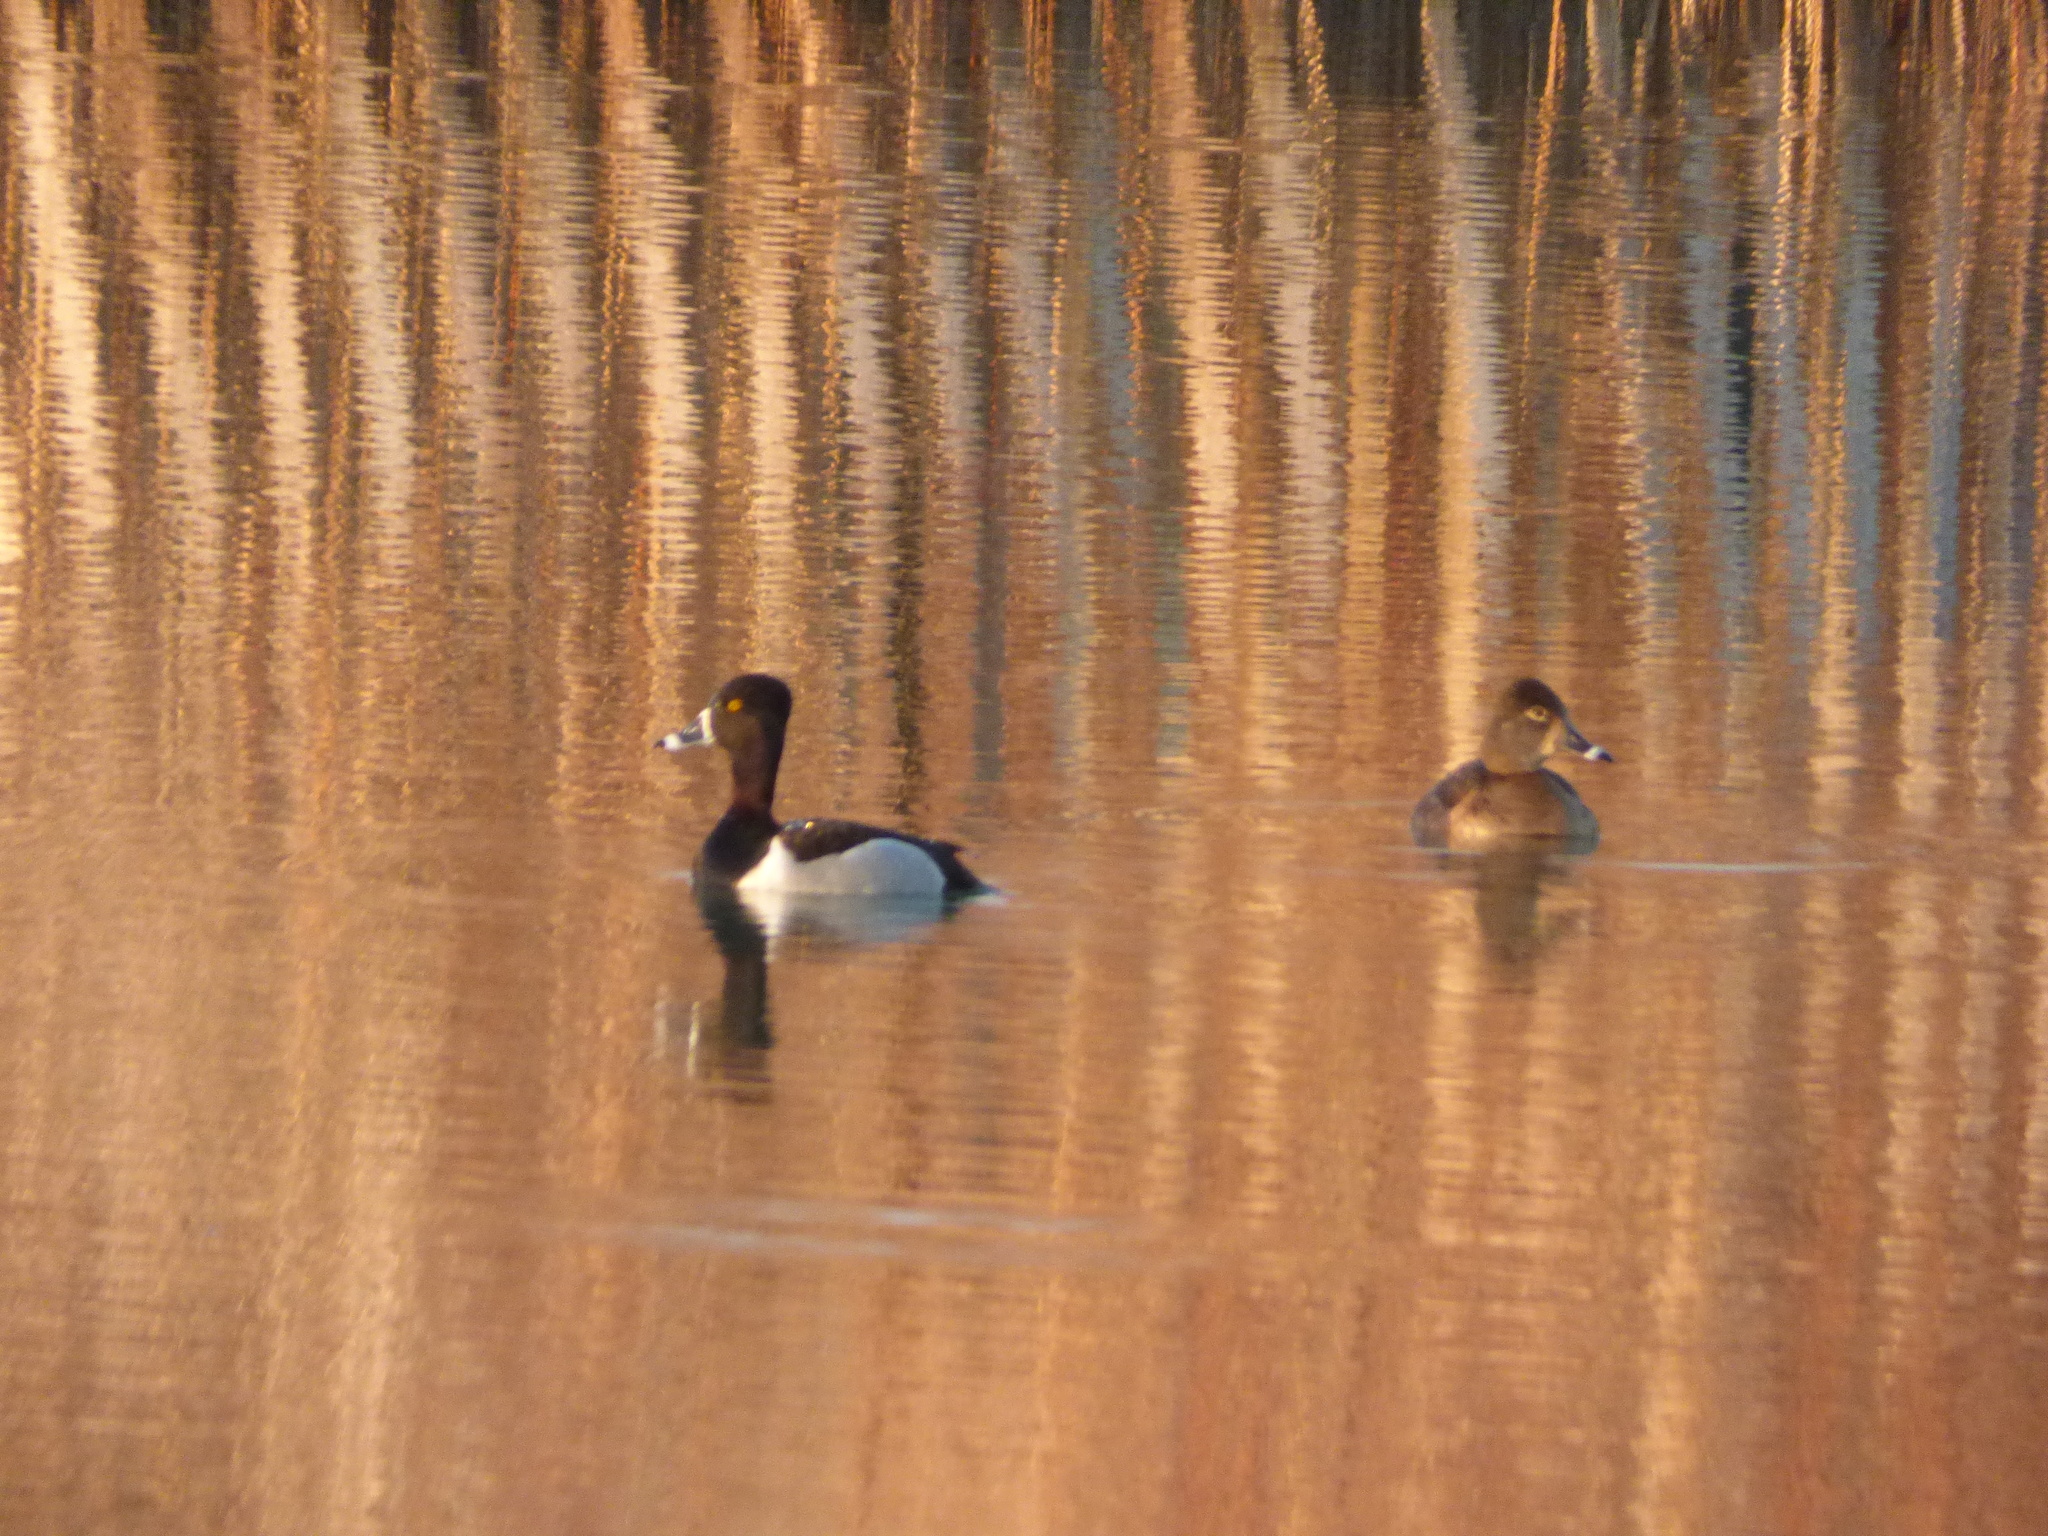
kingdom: Animalia
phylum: Chordata
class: Aves
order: Anseriformes
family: Anatidae
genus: Aythya
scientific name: Aythya collaris
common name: Ring-necked duck
